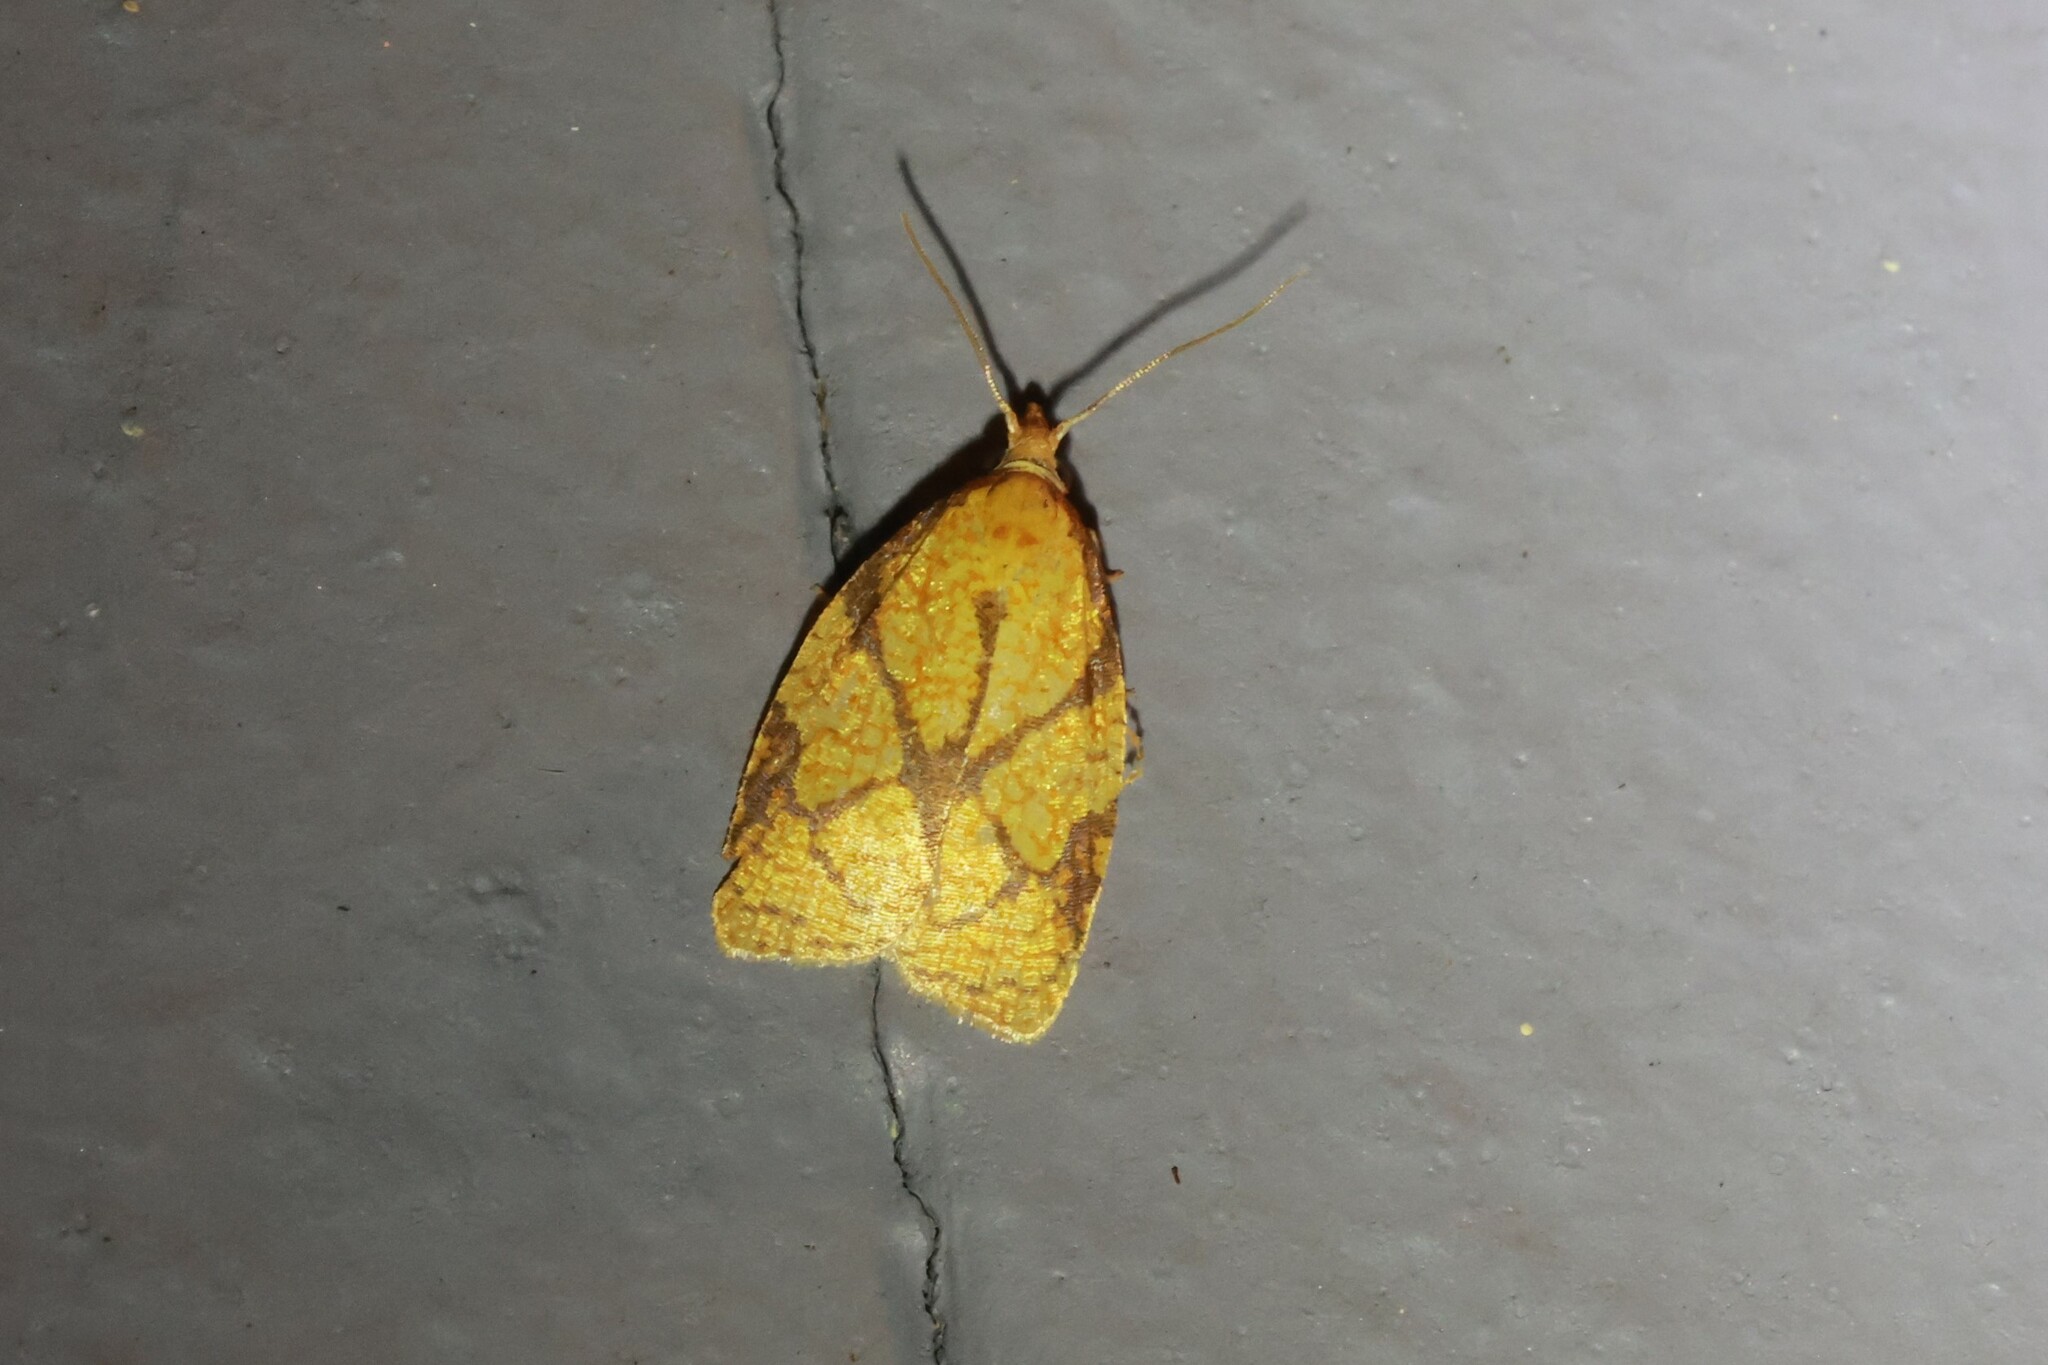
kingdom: Animalia
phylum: Arthropoda
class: Insecta
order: Lepidoptera
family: Tortricidae
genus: Cenopis
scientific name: Cenopis reticulatana
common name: Reticulated fruitworm moth
